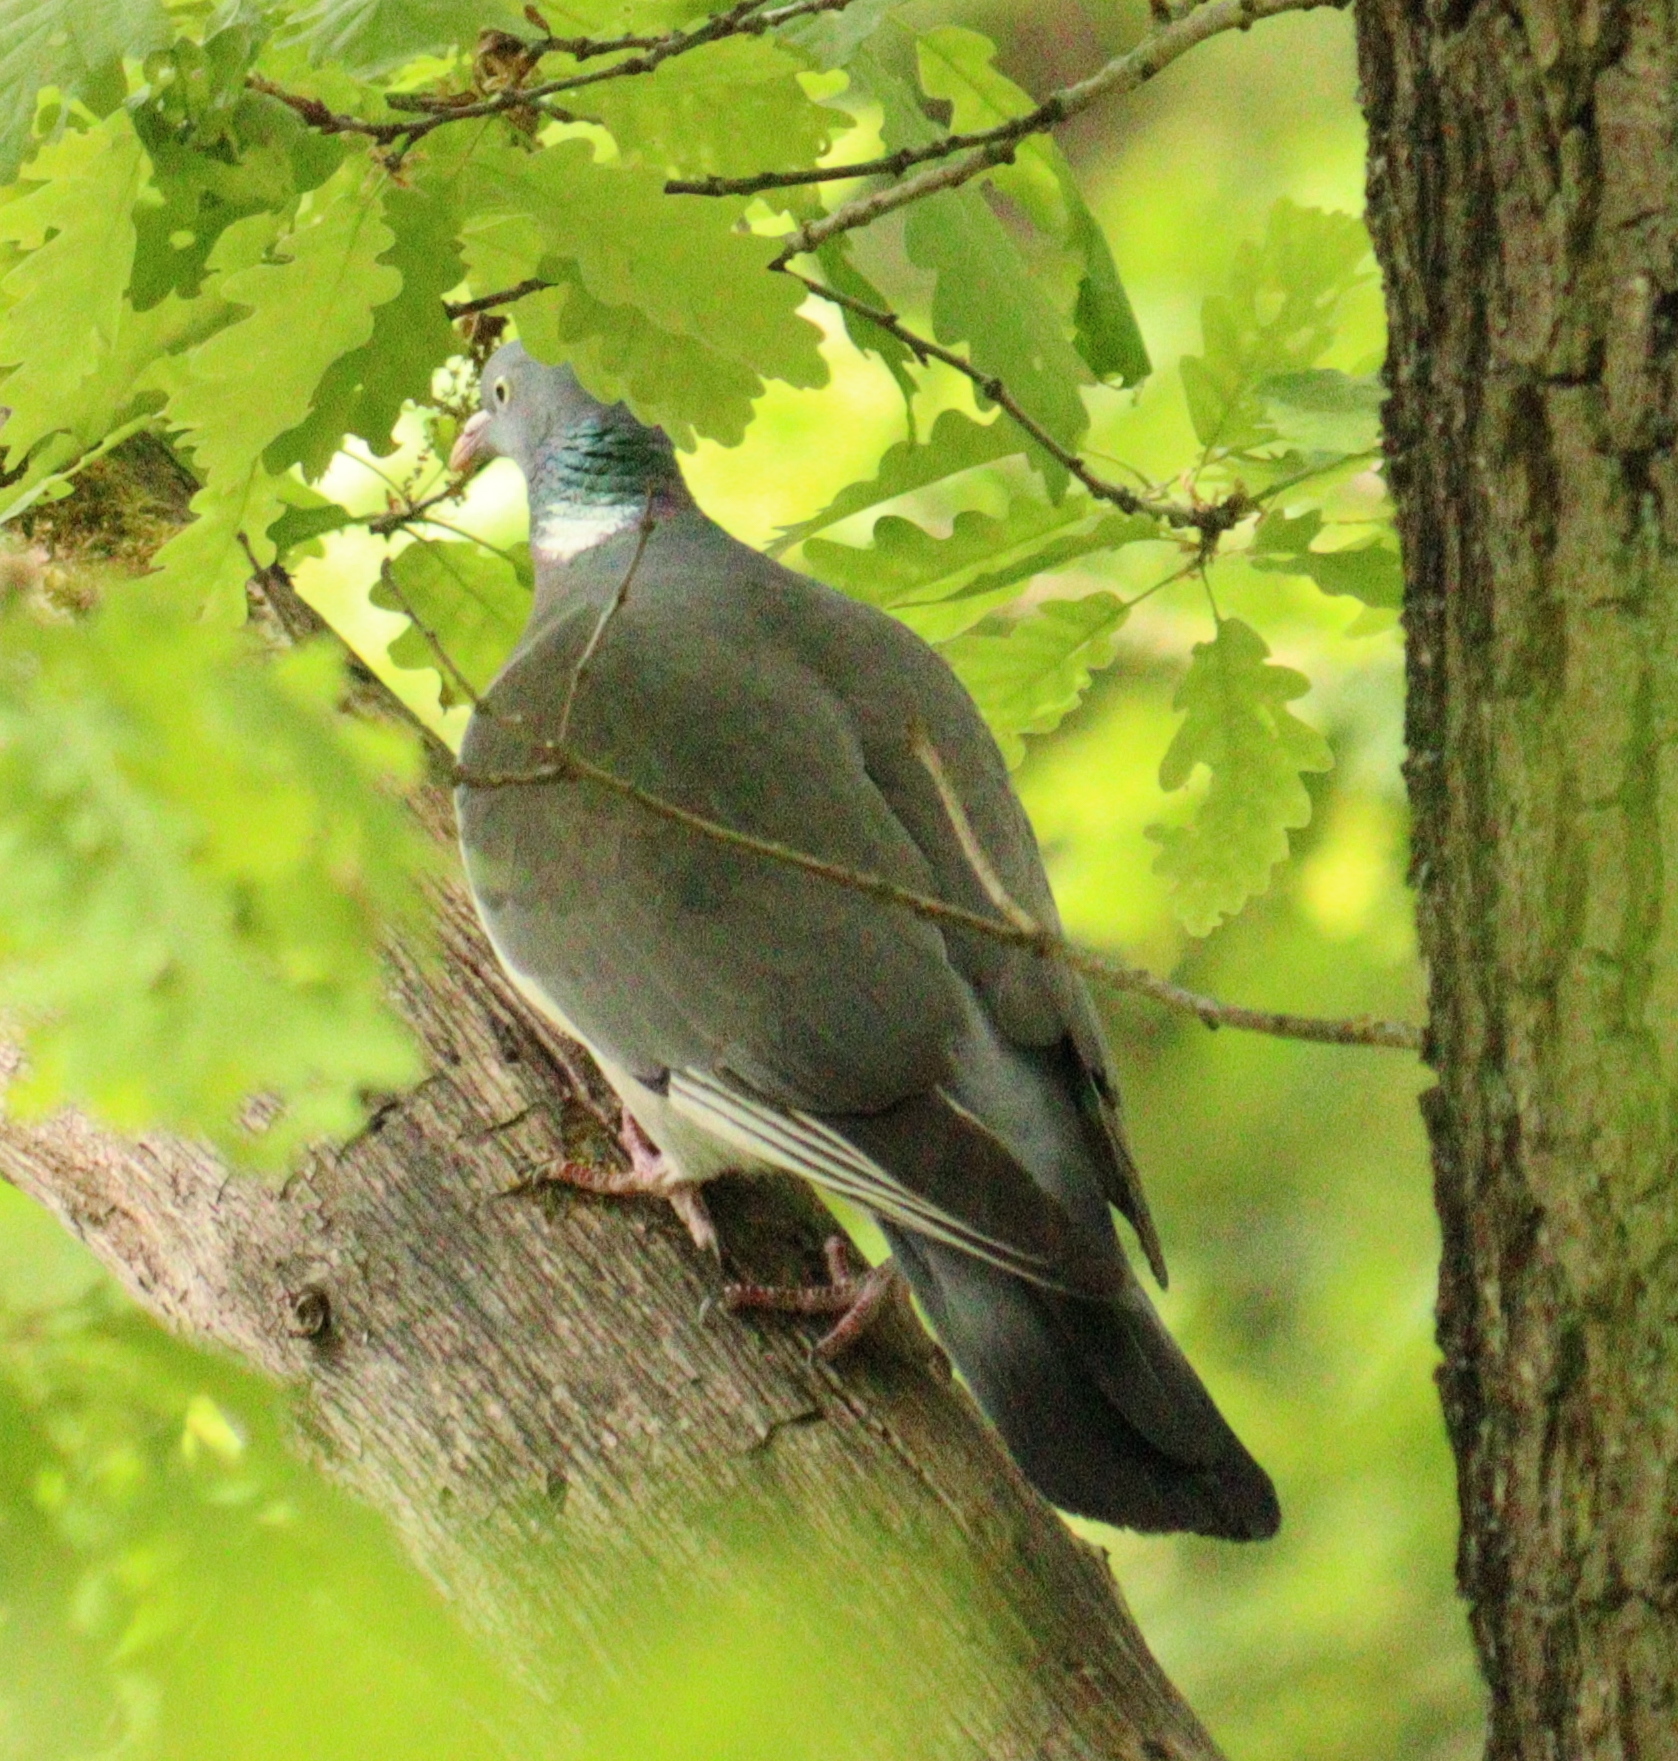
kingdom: Animalia
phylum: Chordata
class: Aves
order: Columbiformes
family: Columbidae
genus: Columba
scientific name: Columba palumbus
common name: Common wood pigeon
